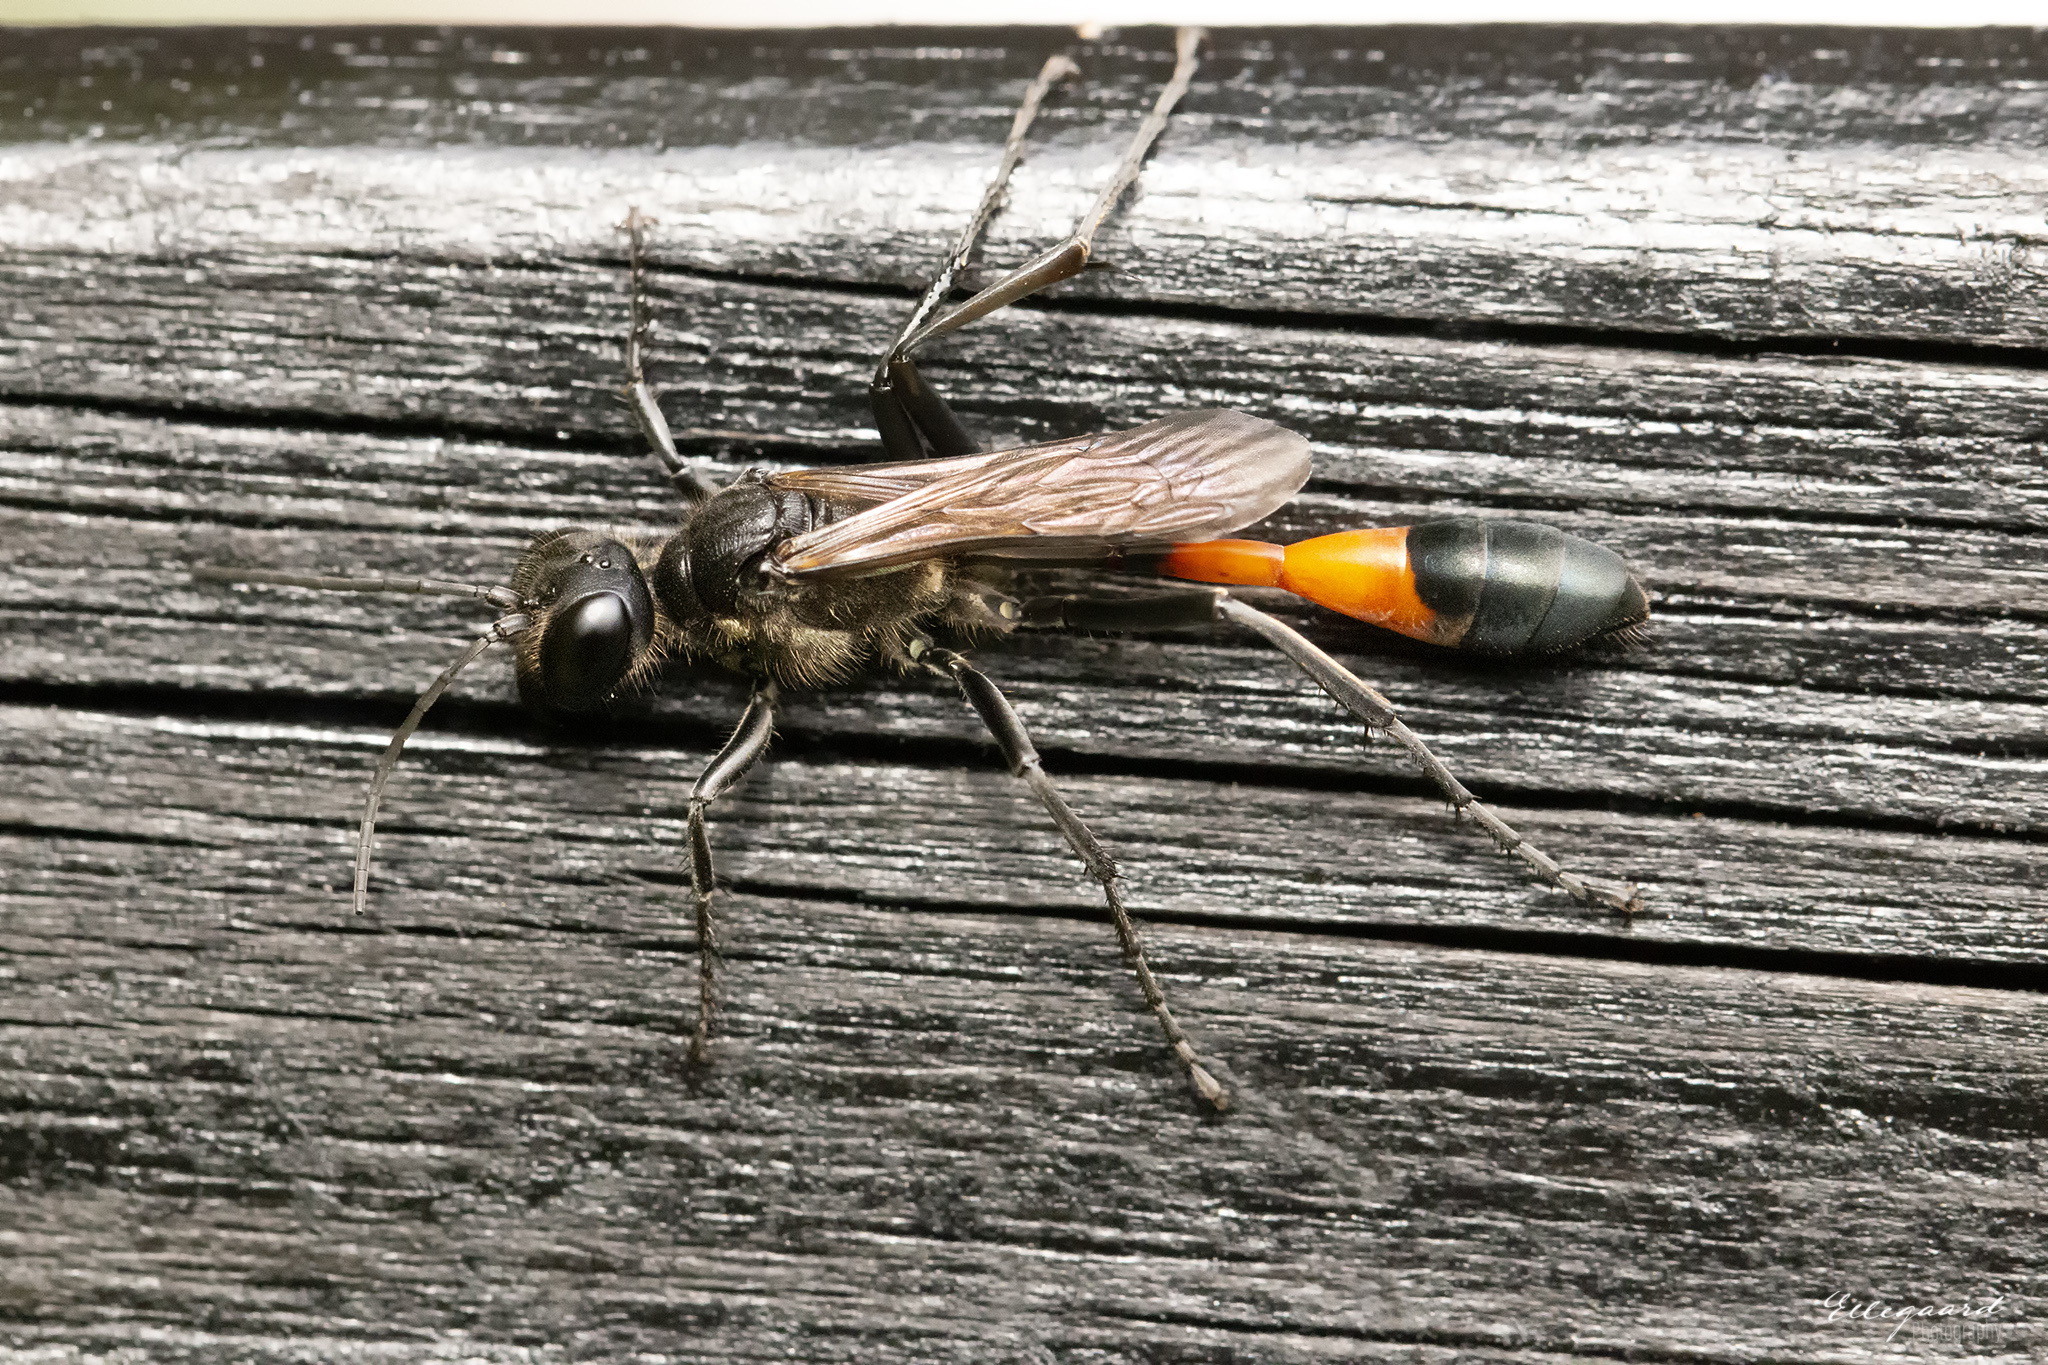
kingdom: Animalia
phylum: Arthropoda
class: Insecta
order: Hymenoptera
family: Sphecidae
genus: Ammophila
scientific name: Ammophila sabulosa
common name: Red banded sand wasp
